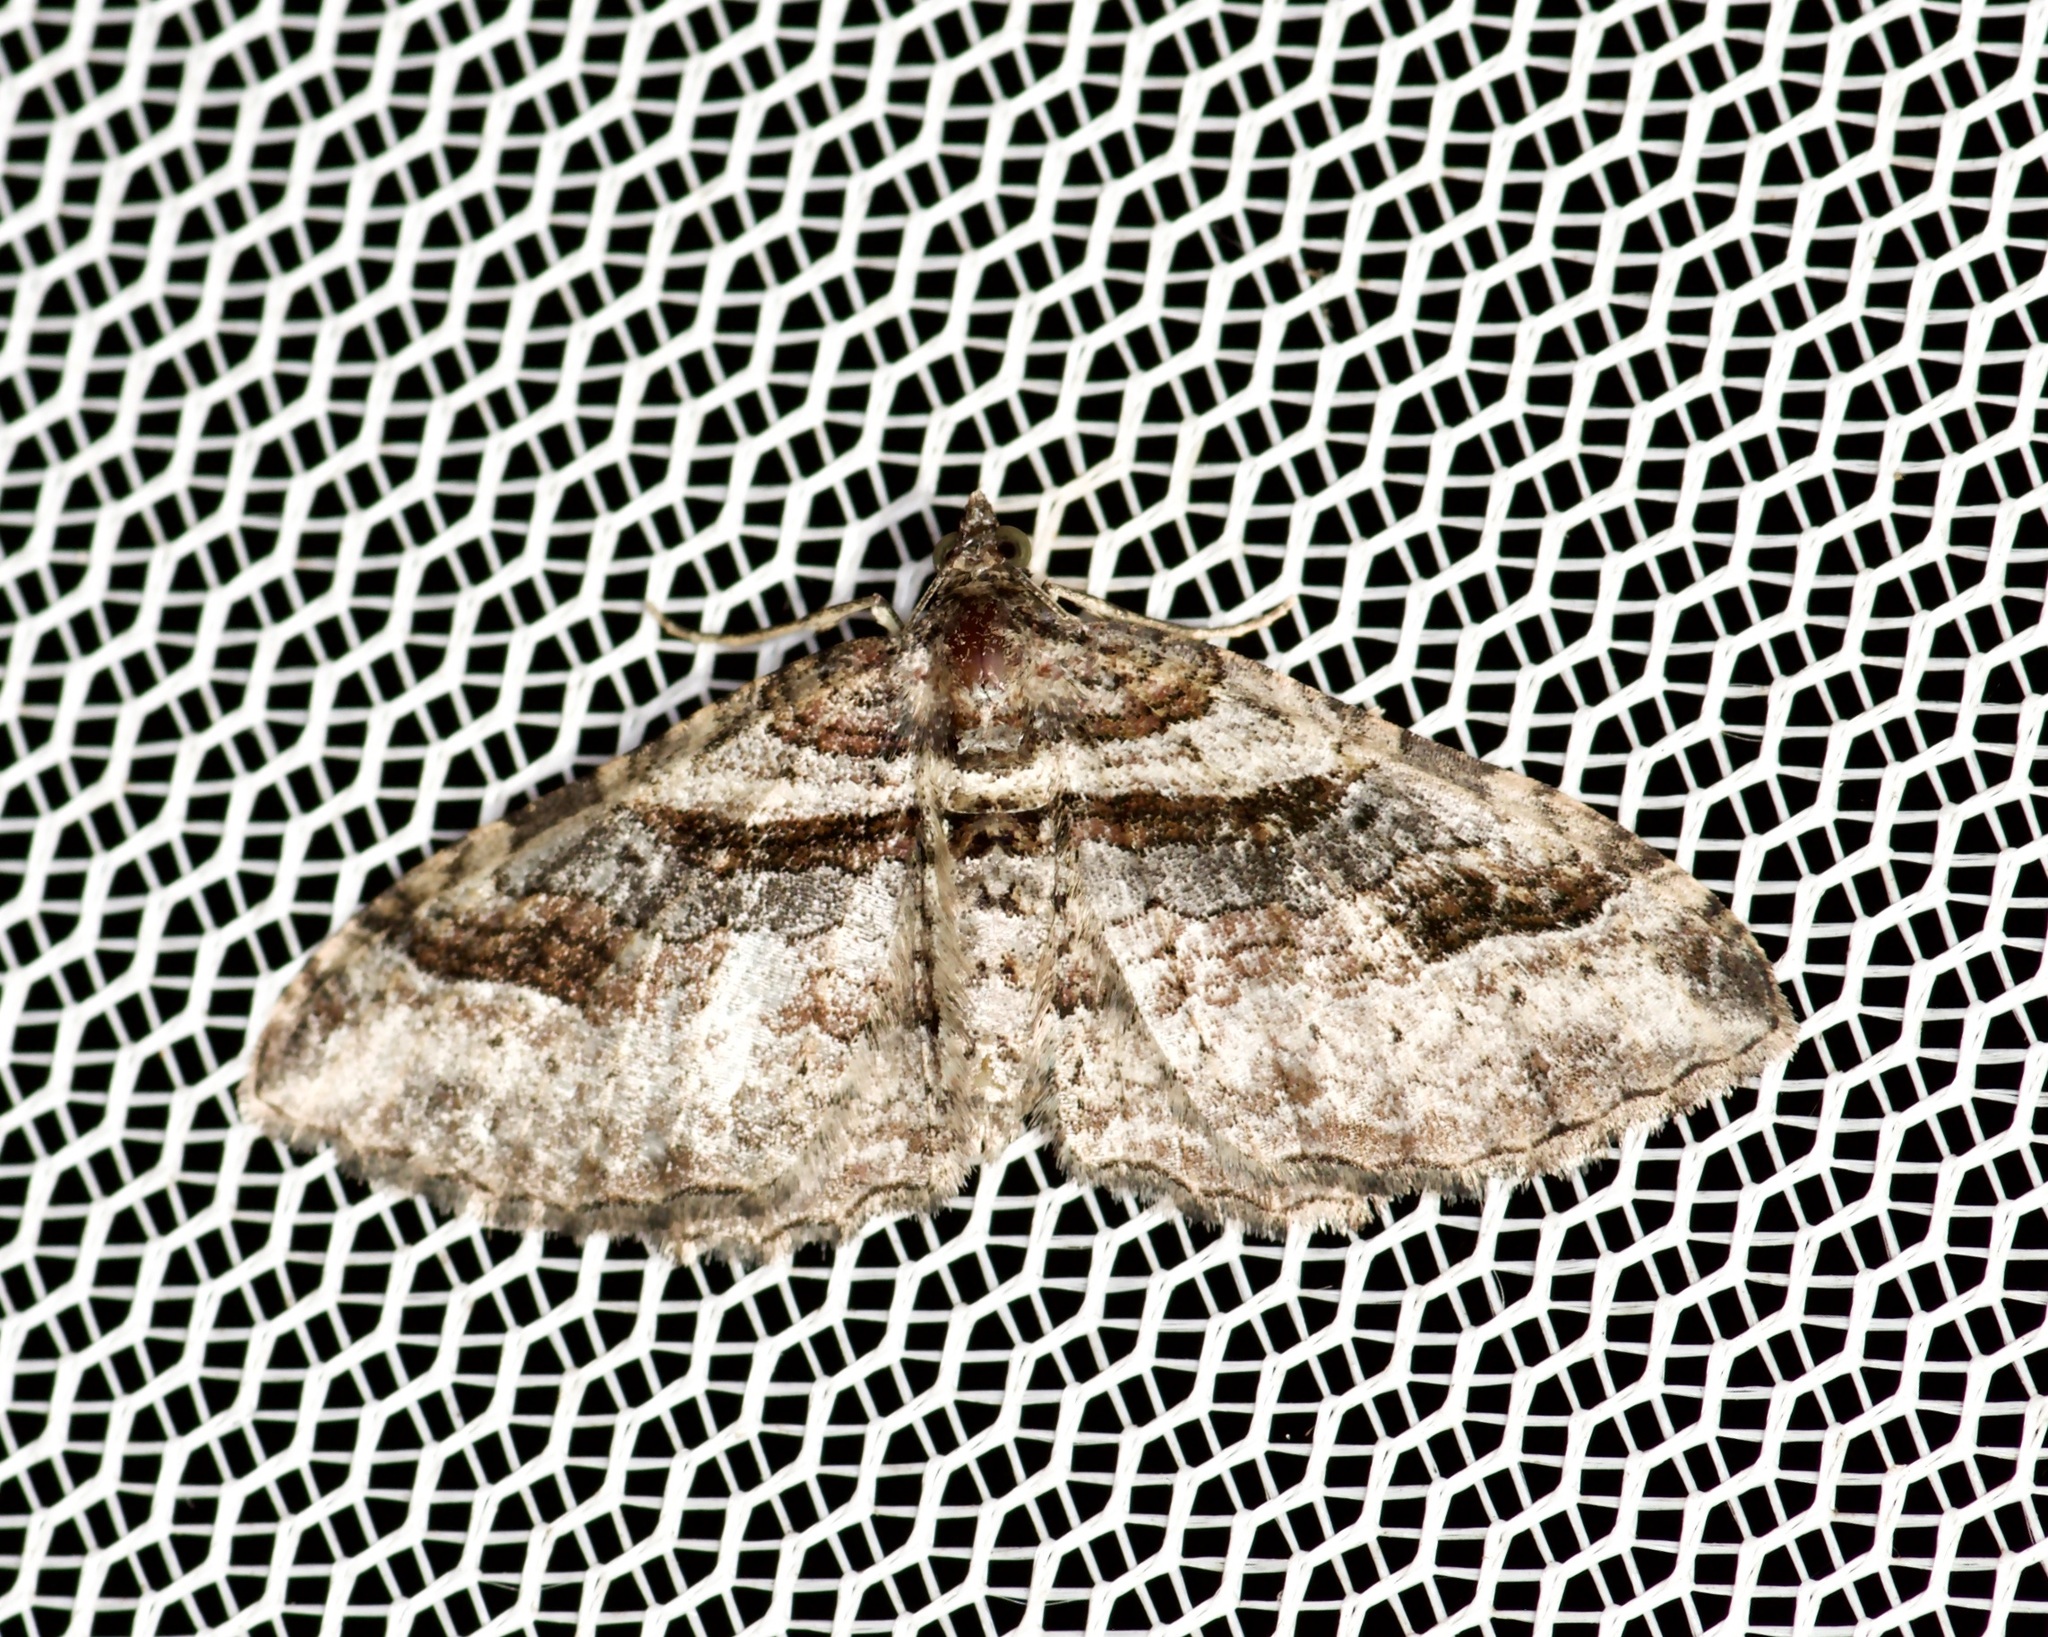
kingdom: Animalia
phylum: Arthropoda
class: Insecta
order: Lepidoptera
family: Geometridae
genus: Costaconvexa
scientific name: Costaconvexa centrostrigaria
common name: Bent-line carpet
